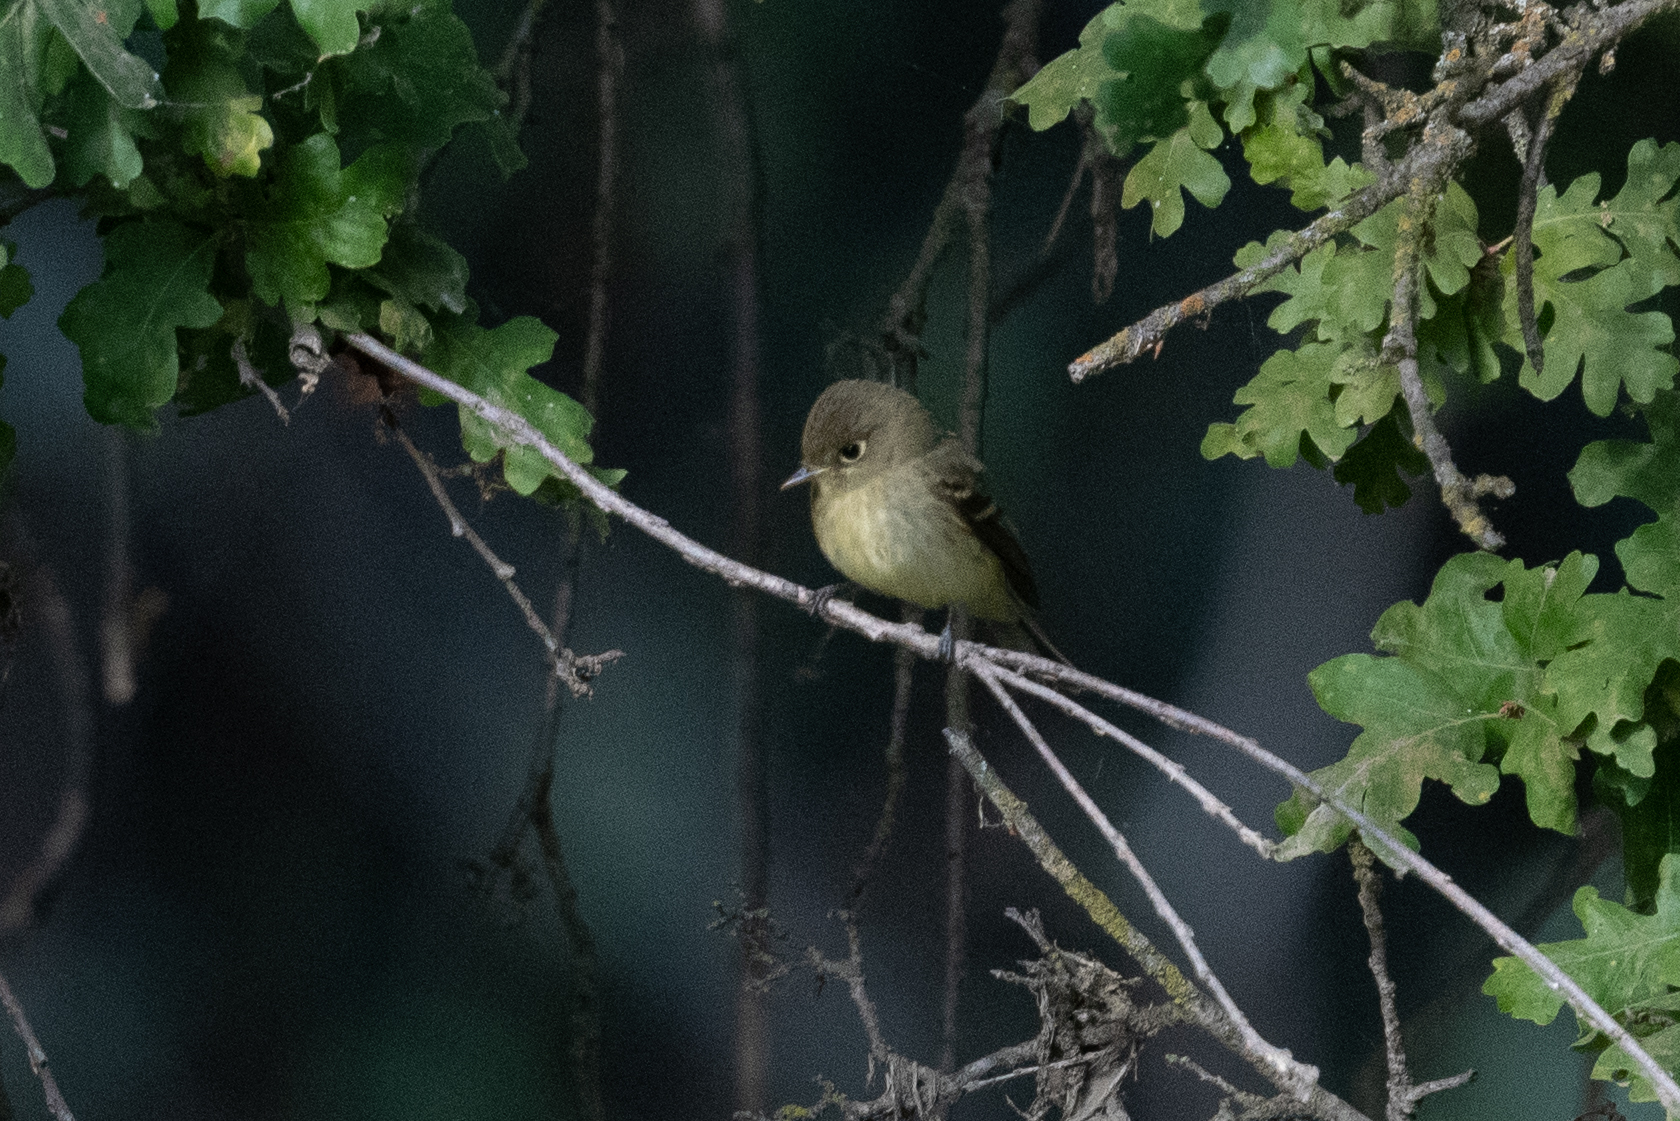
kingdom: Animalia
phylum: Chordata
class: Aves
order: Passeriformes
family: Tyrannidae
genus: Empidonax
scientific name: Empidonax difficilis
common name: Pacific-slope flycatcher
